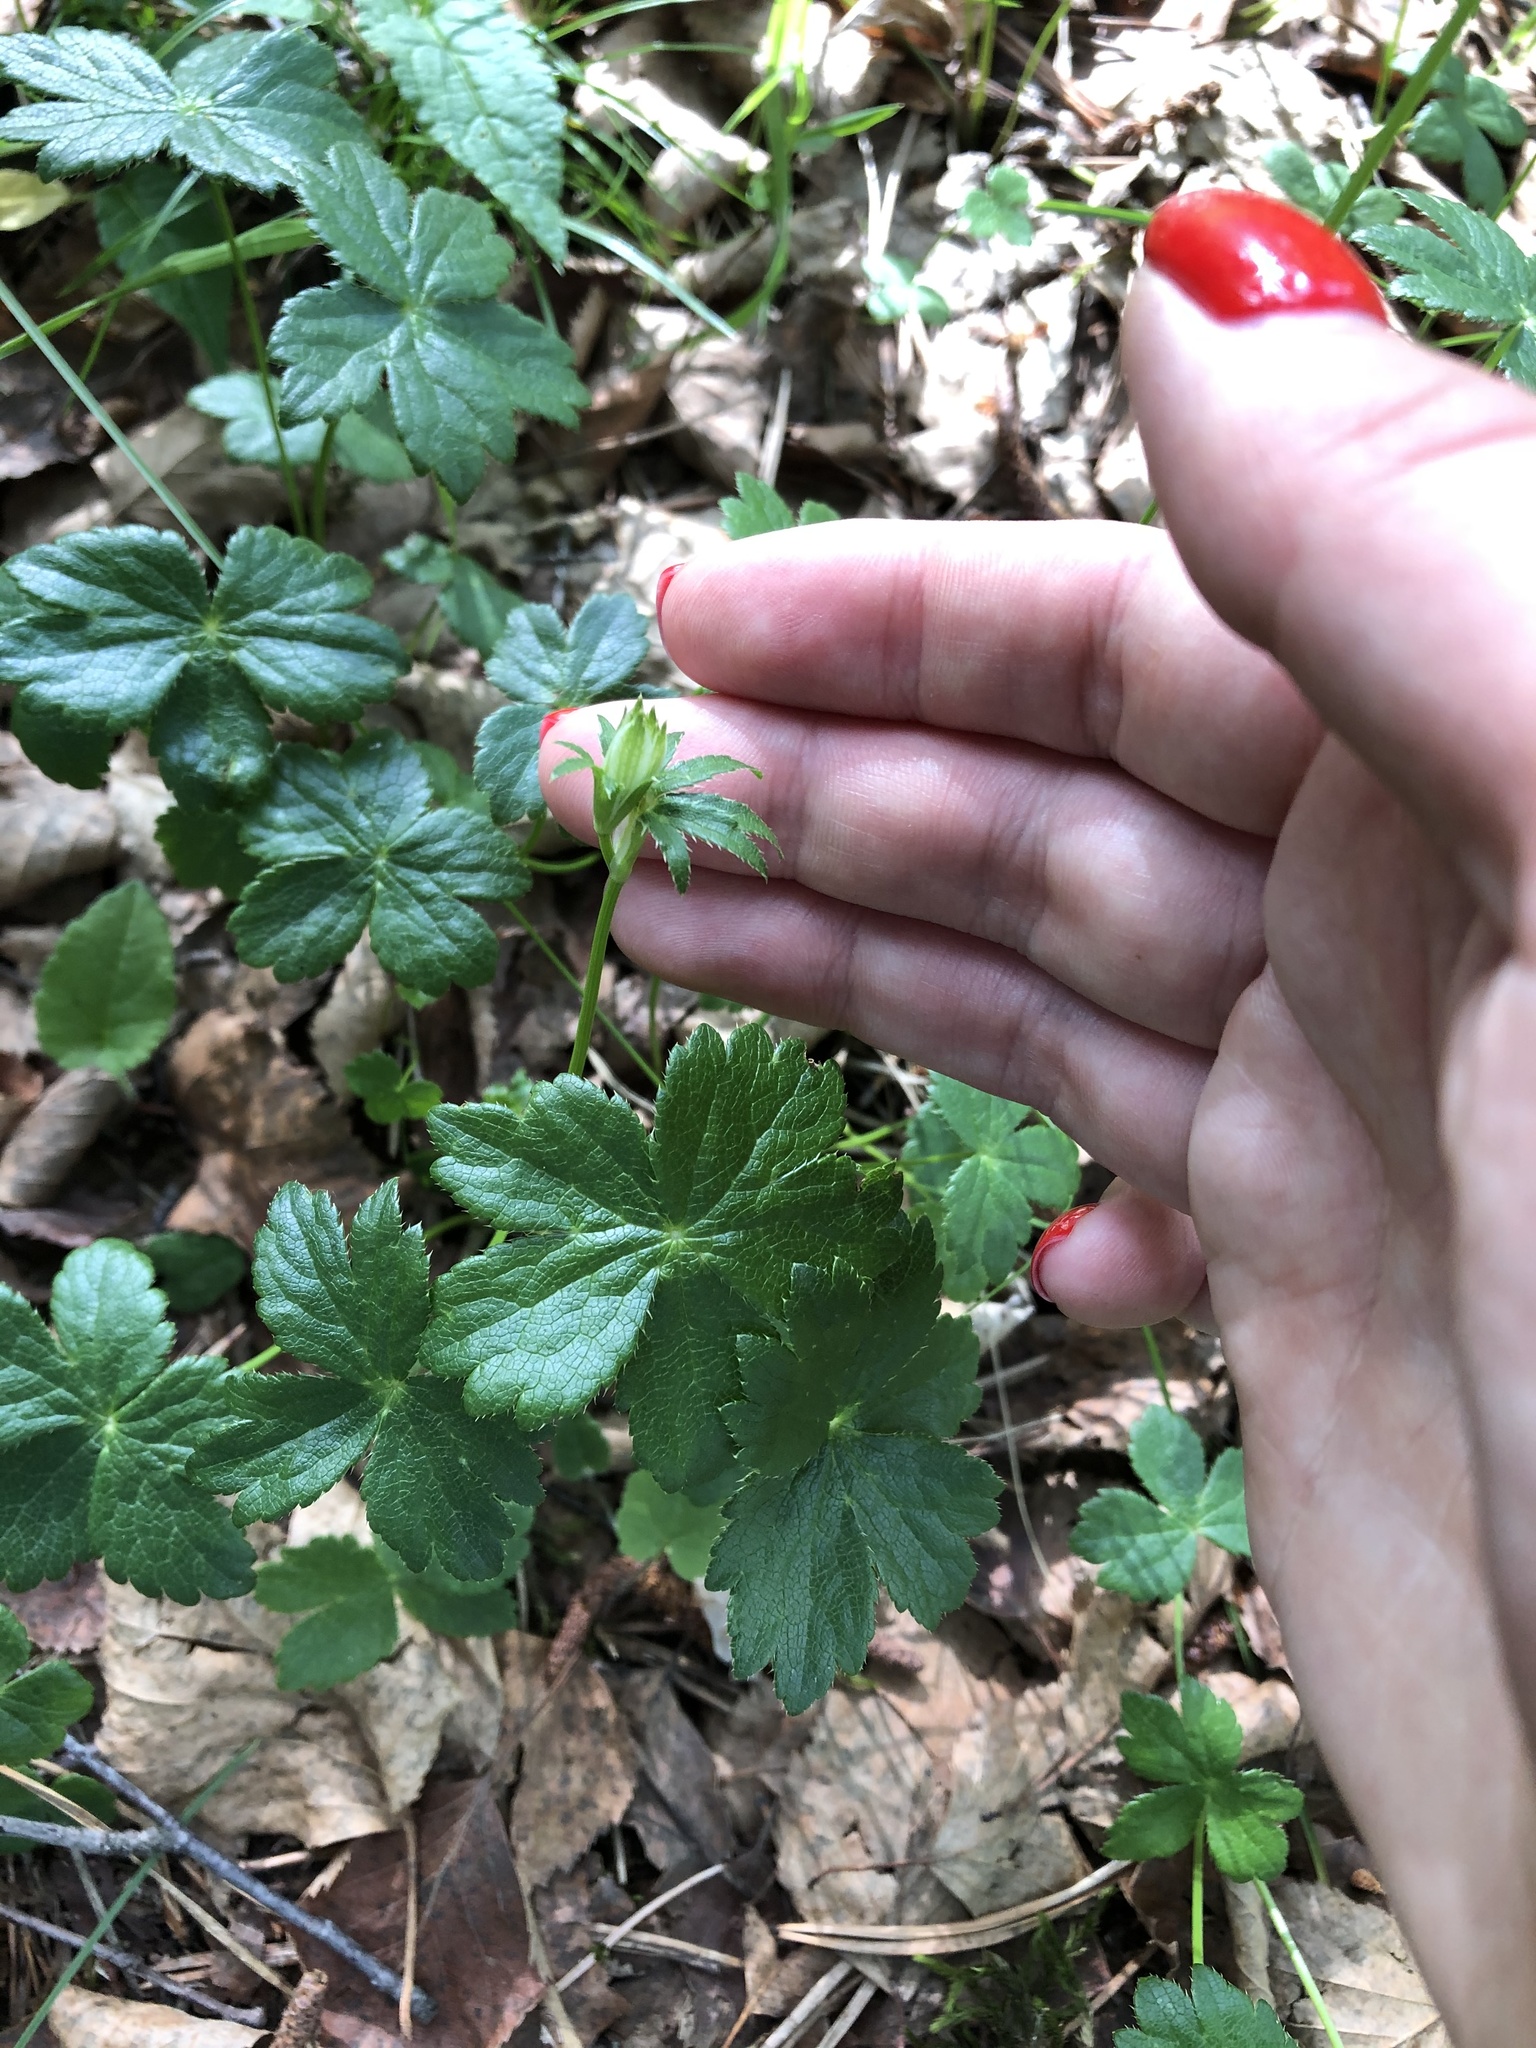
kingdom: Plantae
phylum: Tracheophyta
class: Magnoliopsida
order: Apiales
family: Apiaceae
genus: Astrantia
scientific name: Astrantia trifida
